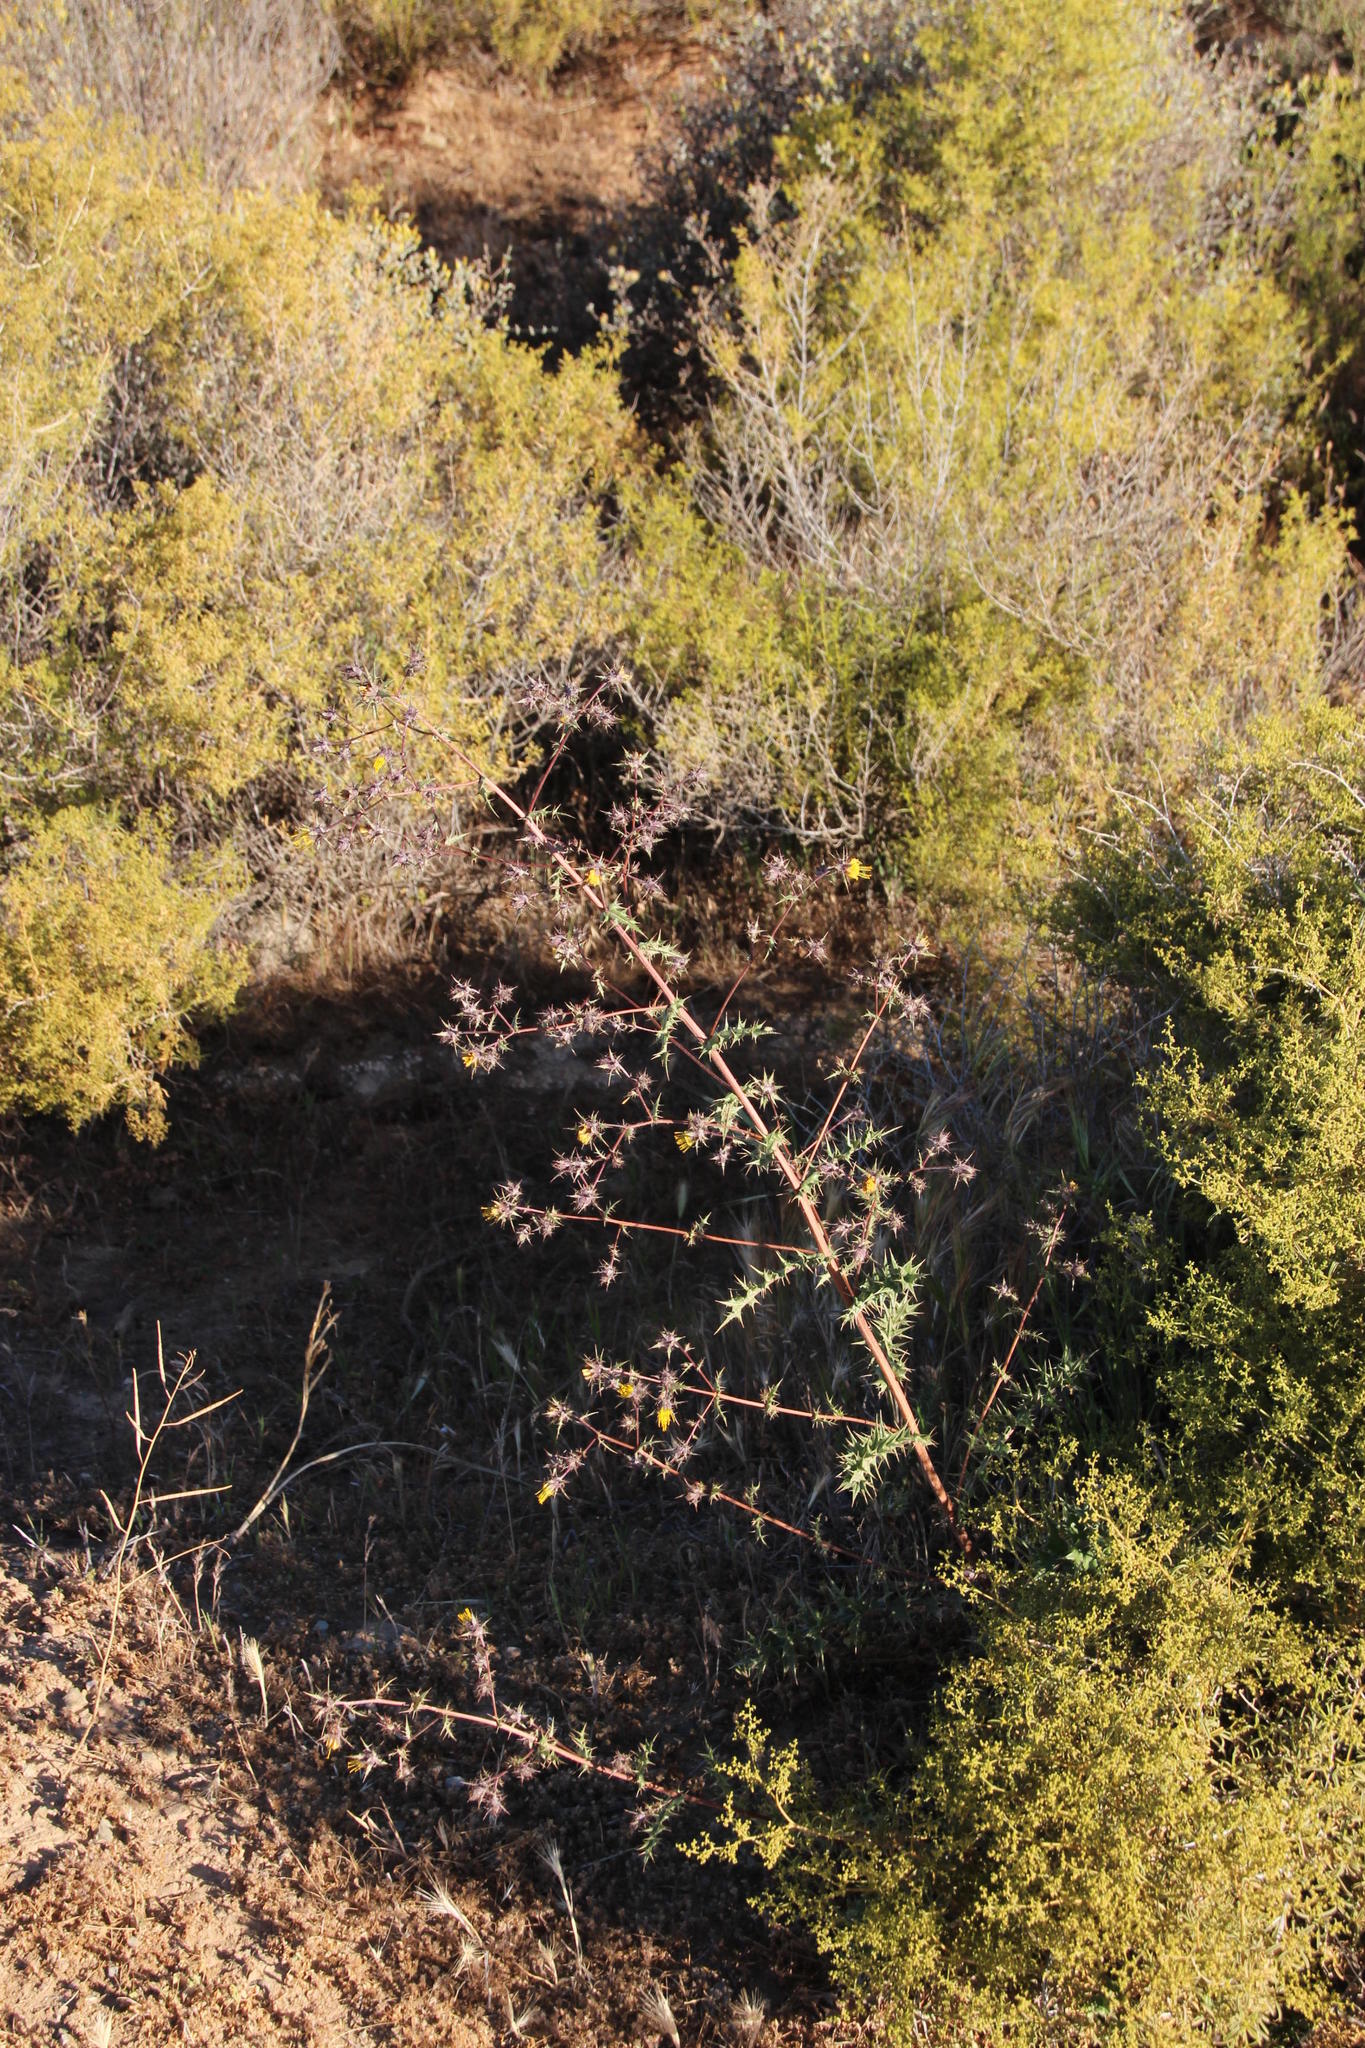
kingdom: Plantae
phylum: Tracheophyta
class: Magnoliopsida
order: Asterales
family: Asteraceae
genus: Berkheya
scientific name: Berkheya onobromoides
